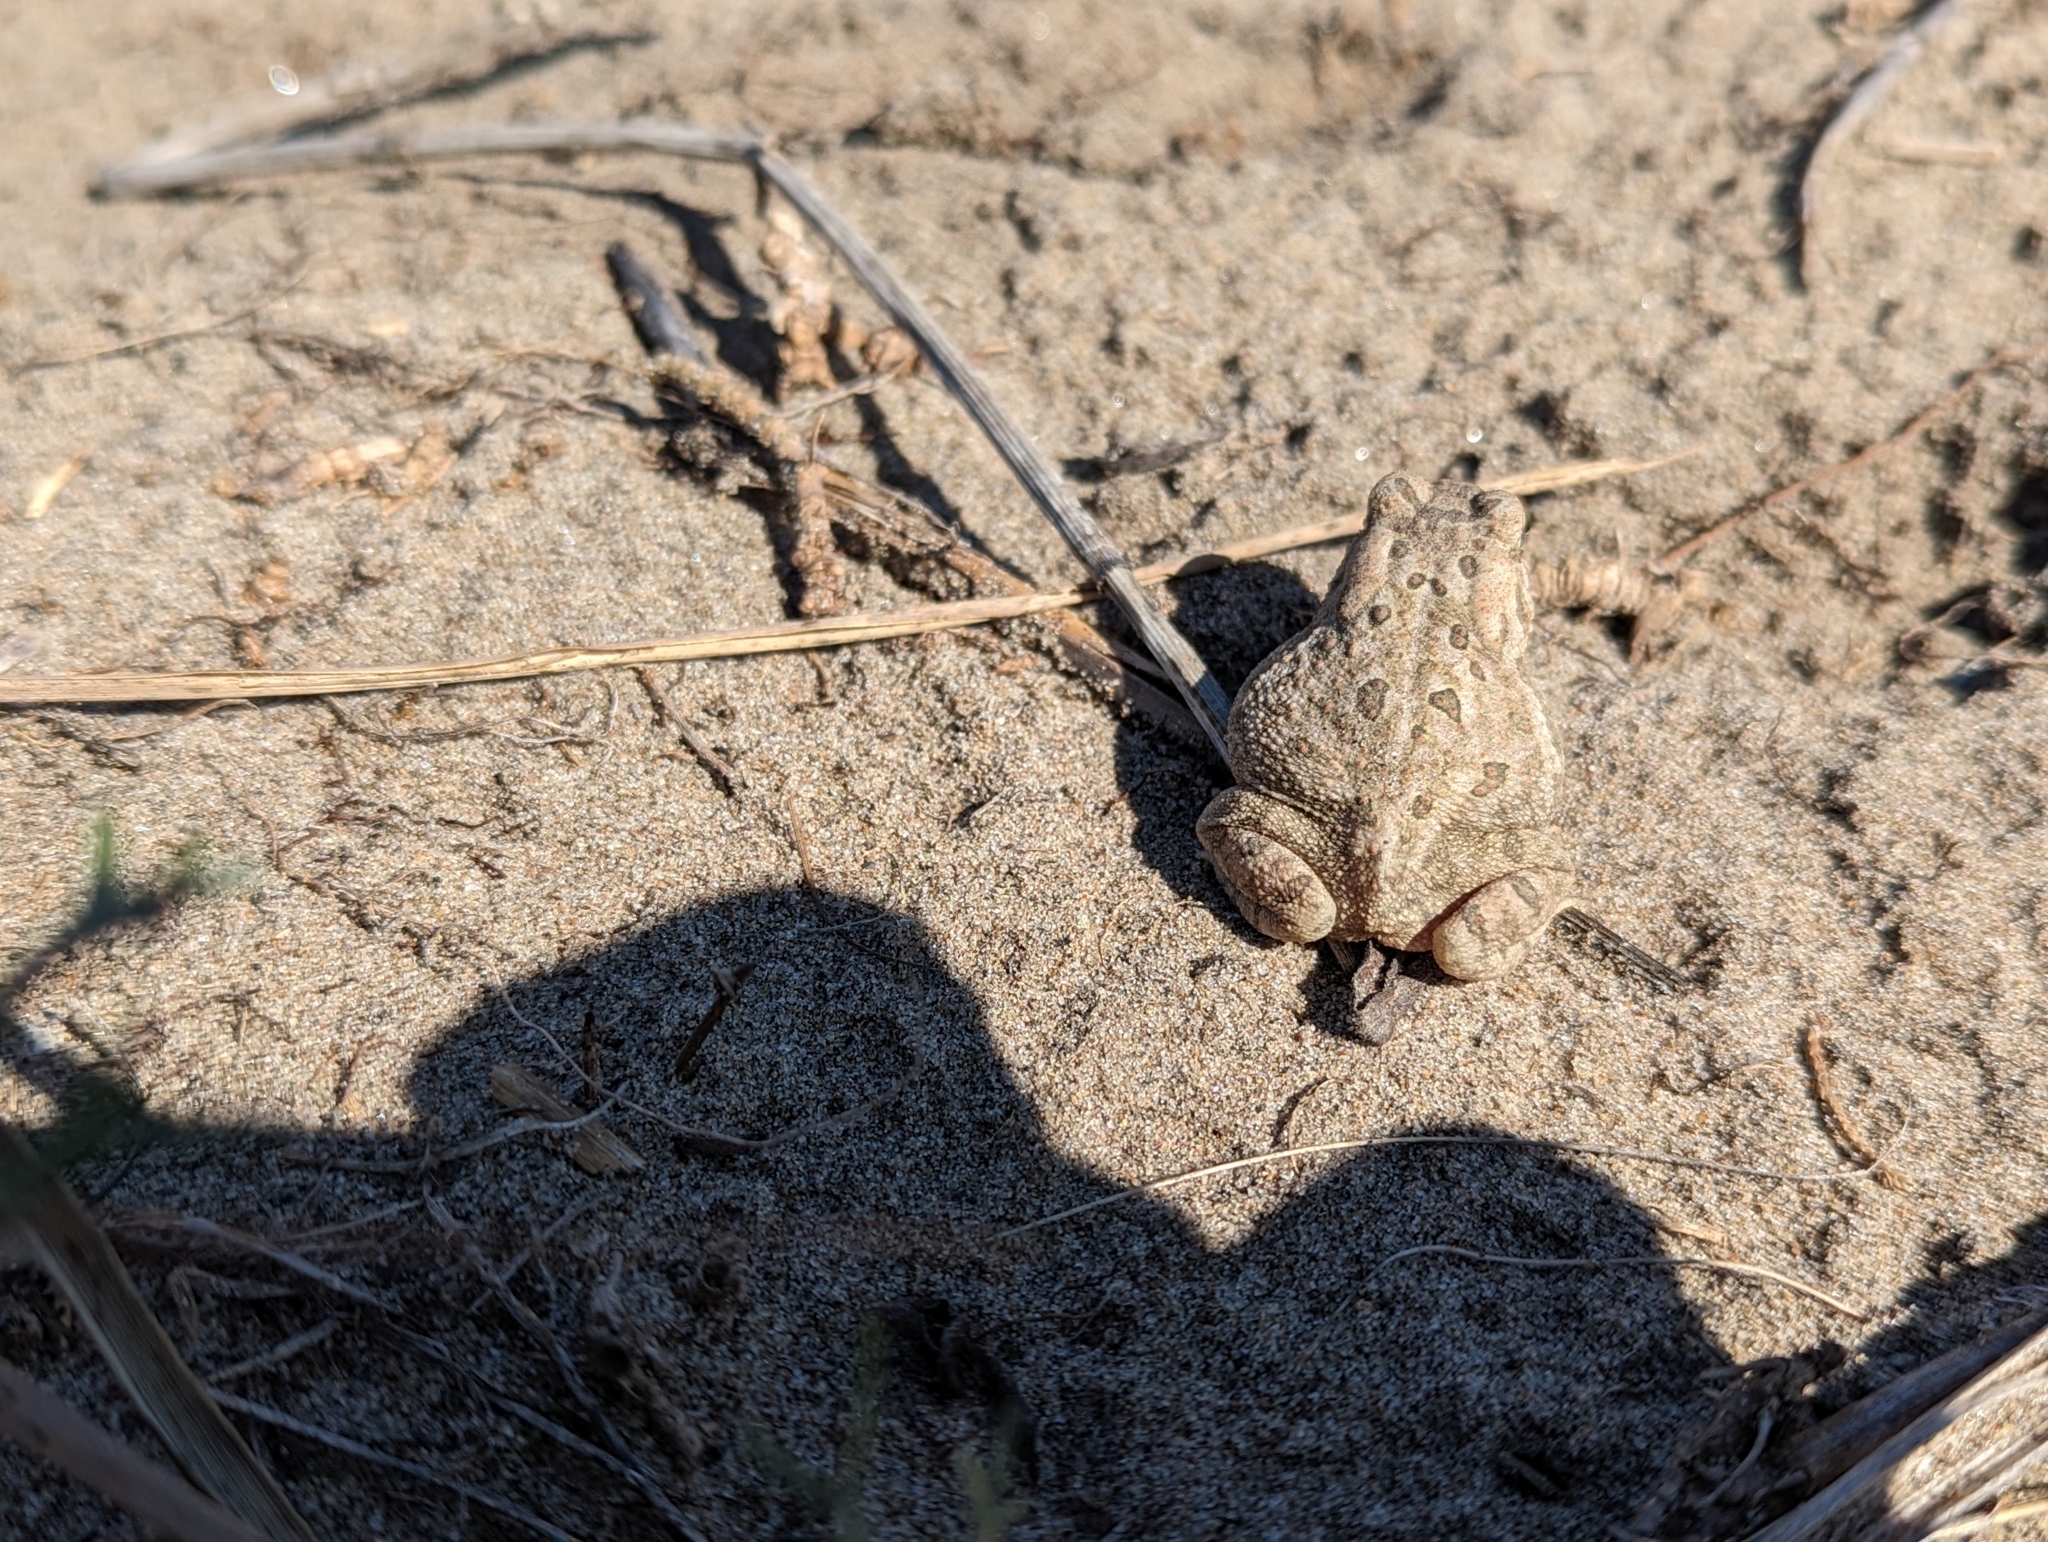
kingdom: Animalia
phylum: Chordata
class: Amphibia
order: Anura
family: Bufonidae
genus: Anaxyrus
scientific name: Anaxyrus fowleri
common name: Fowler's toad
